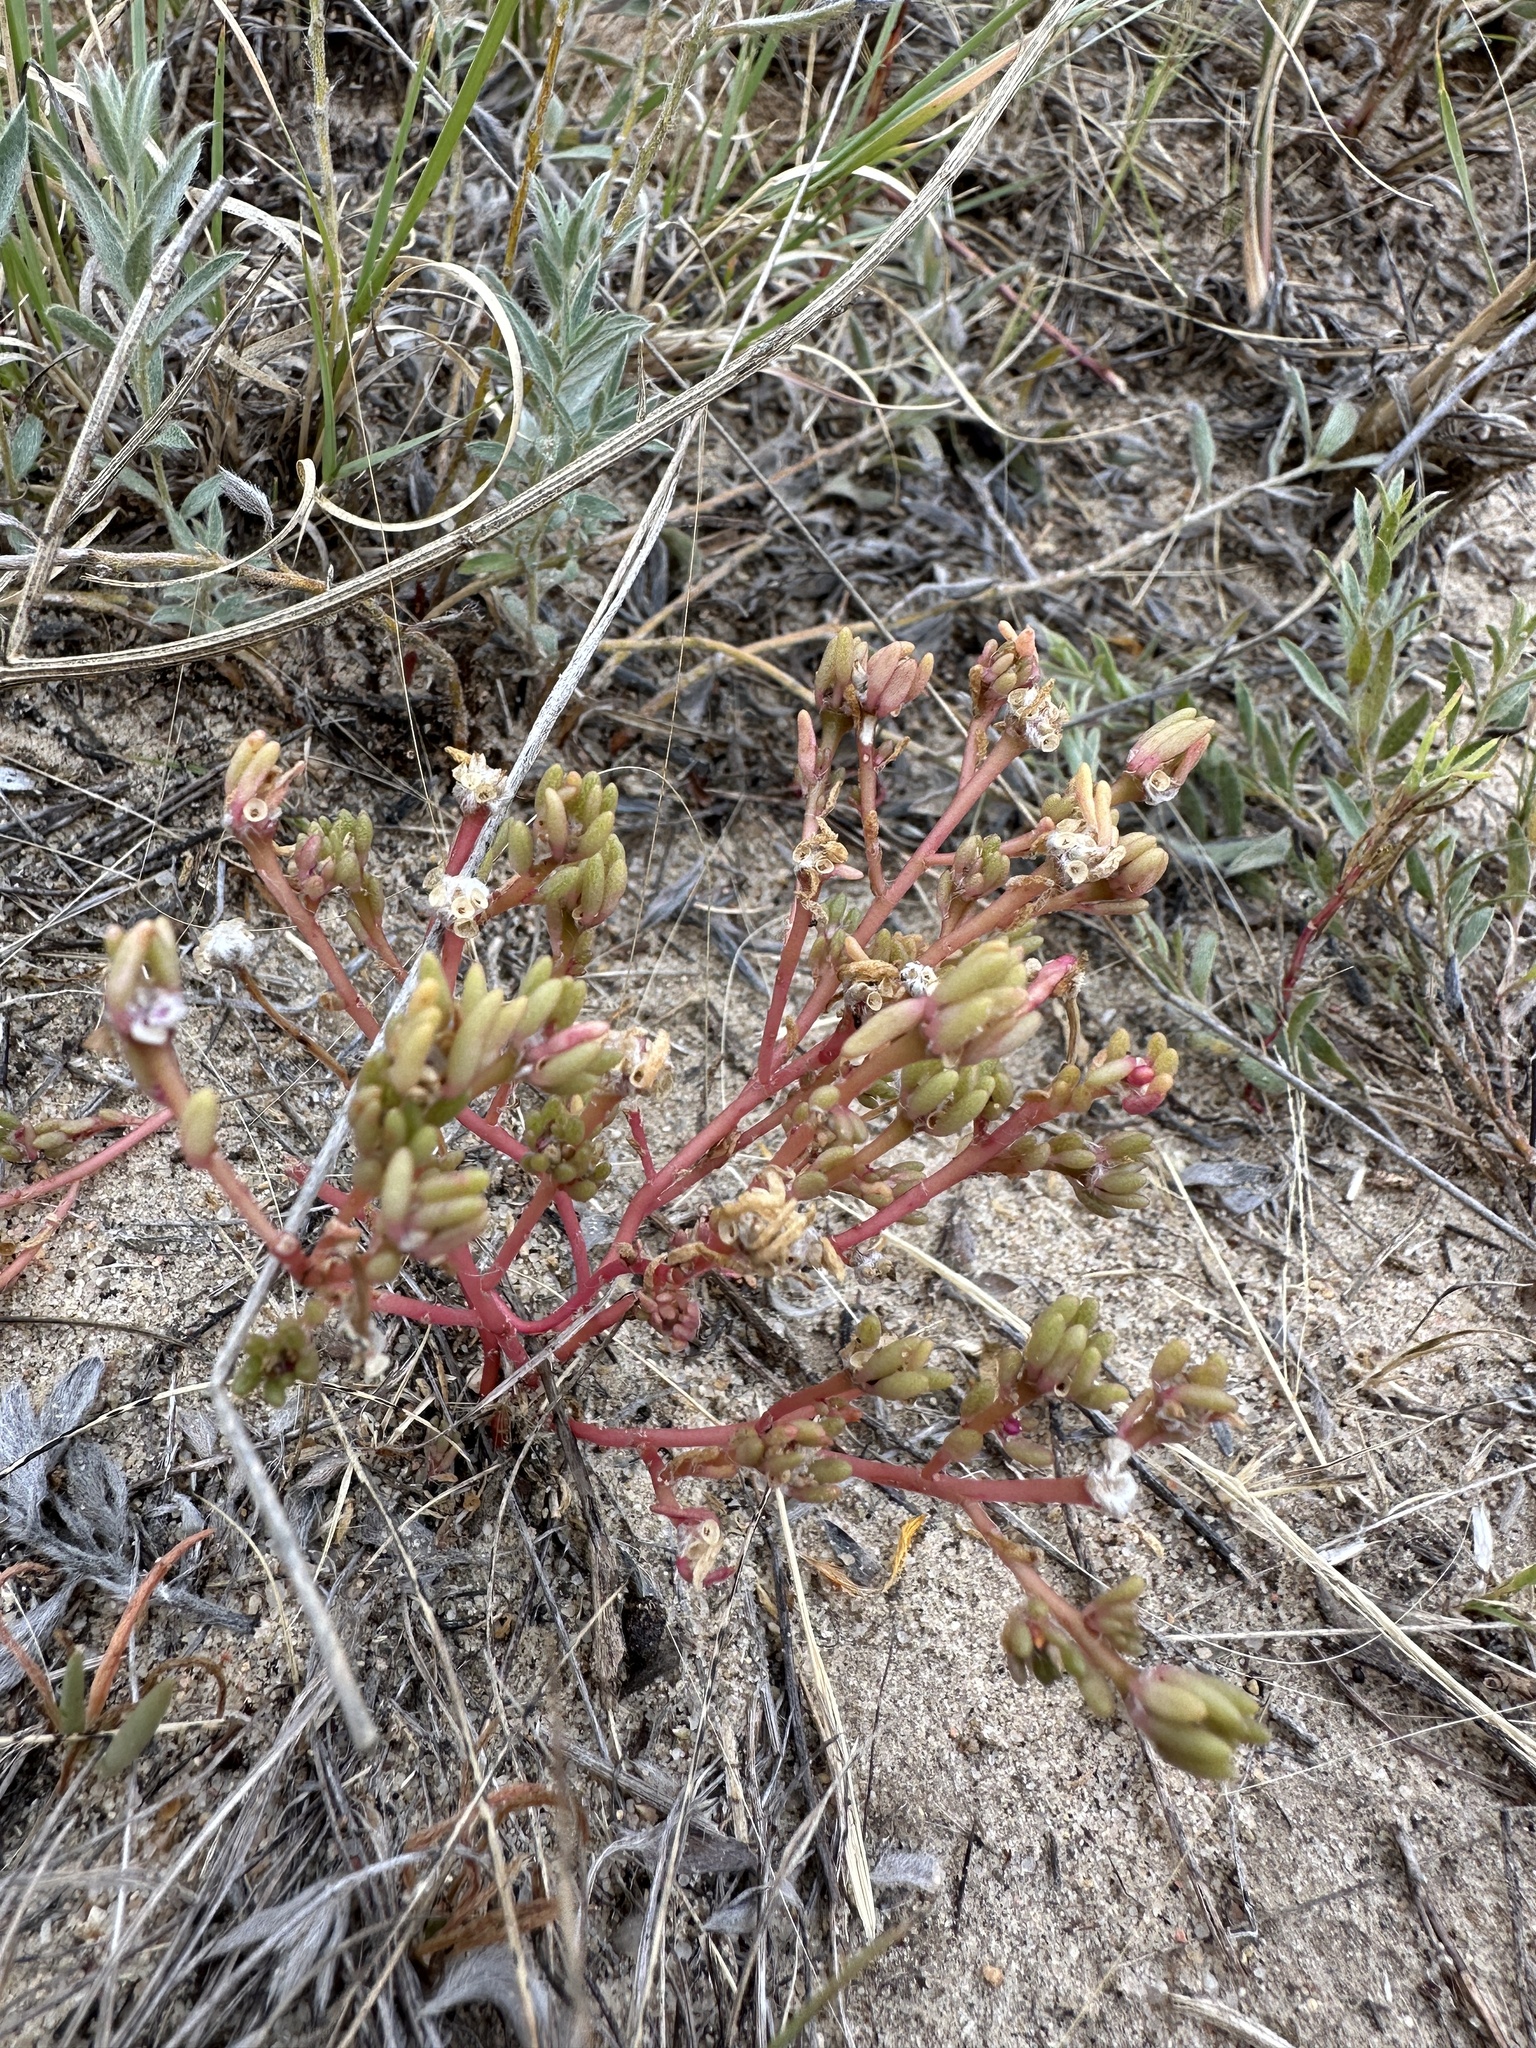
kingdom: Plantae
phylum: Tracheophyta
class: Magnoliopsida
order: Caryophyllales
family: Portulacaceae
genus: Portulaca
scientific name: Portulaca pilosa
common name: Kiss me quick
